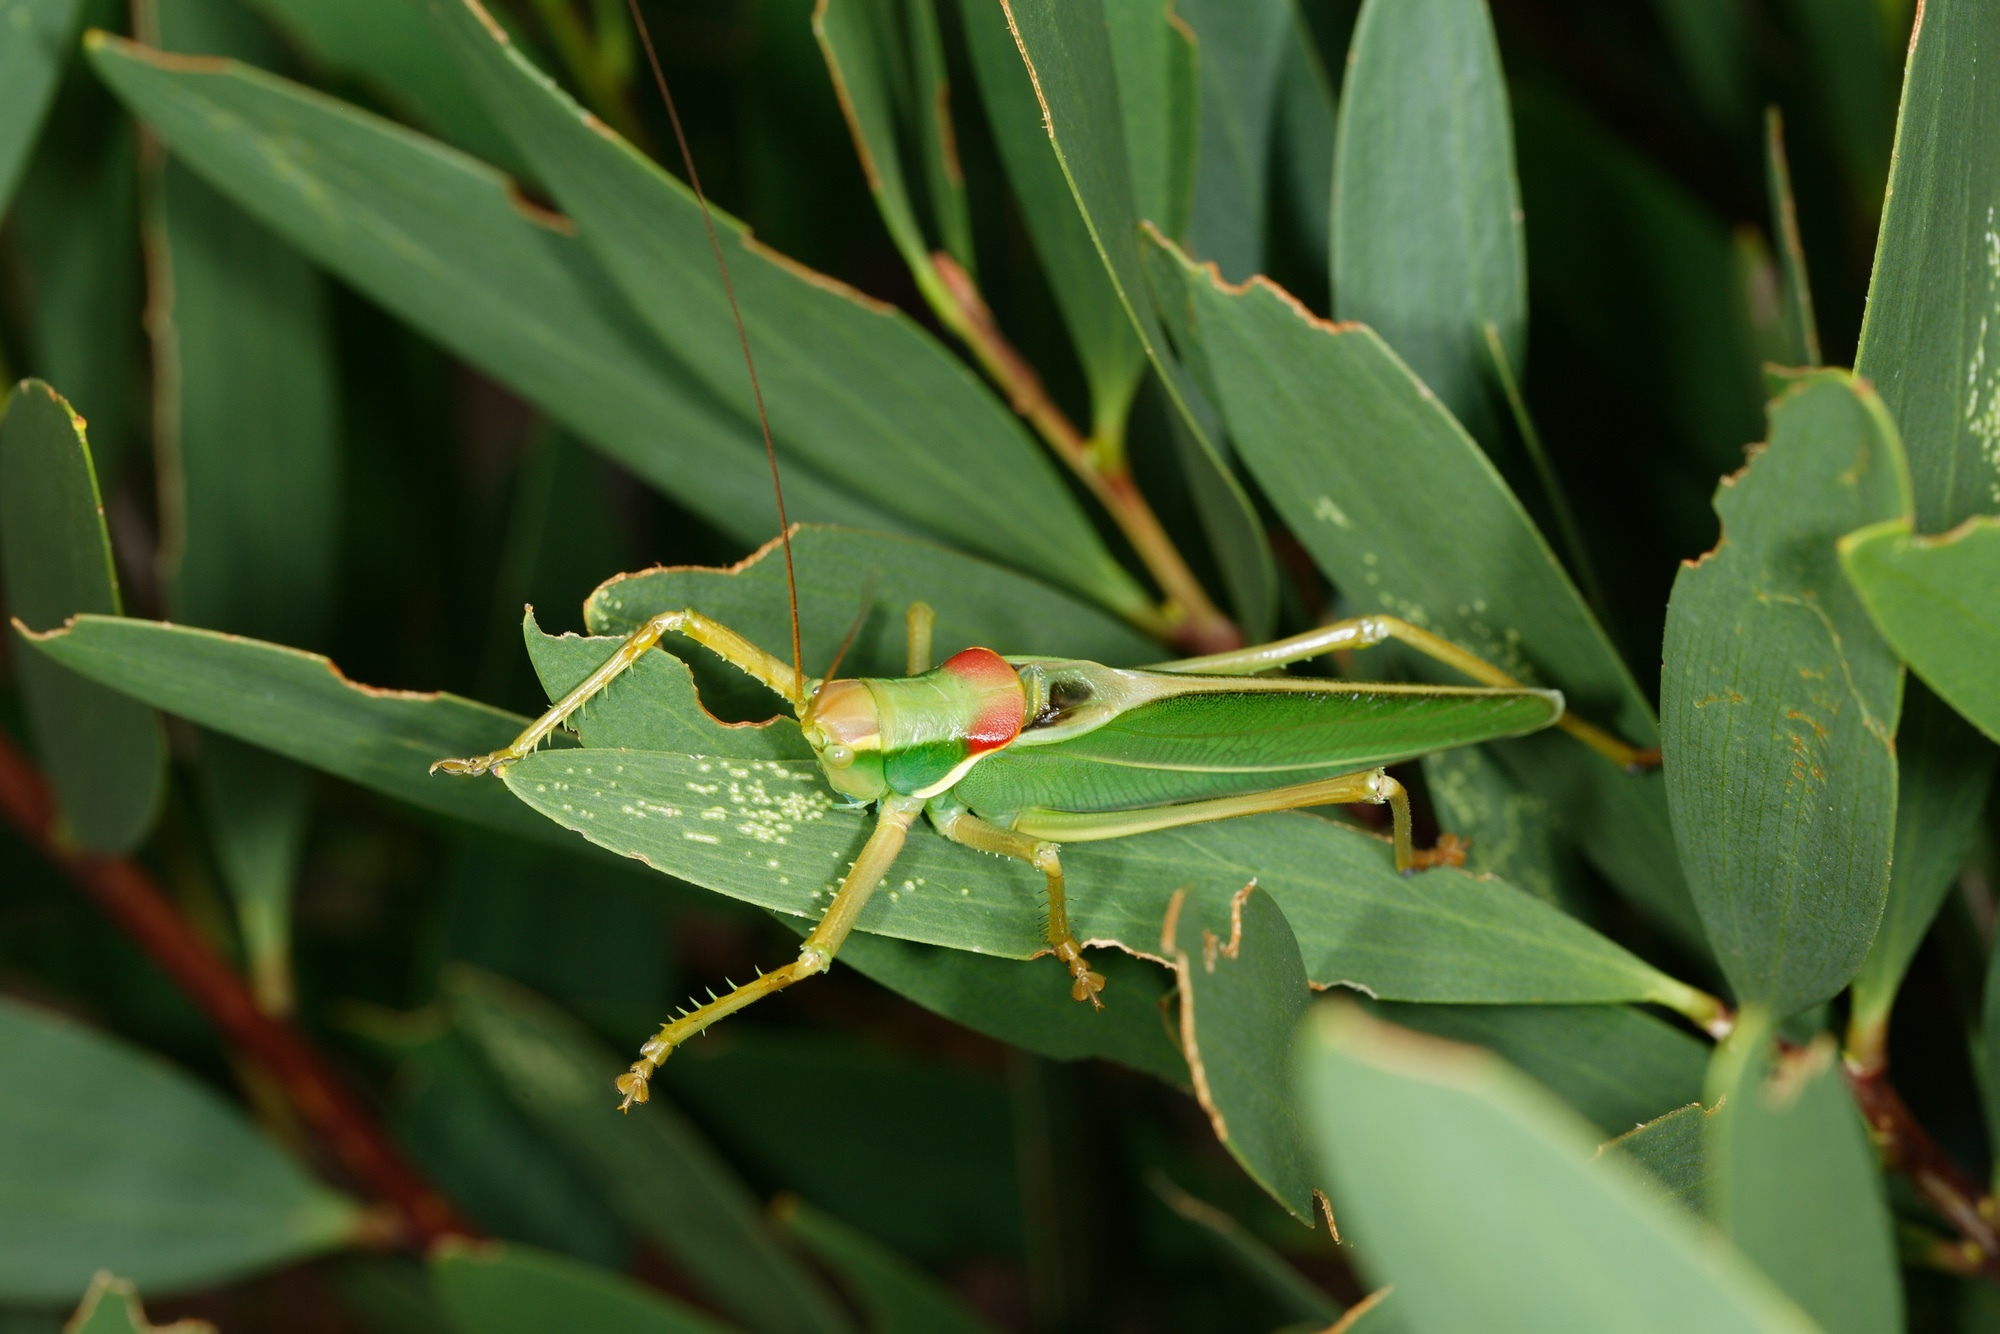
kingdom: Animalia
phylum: Arthropoda
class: Insecta
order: Orthoptera
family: Tettigoniidae
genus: Terpandrus
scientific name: Terpandrus endota
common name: Great green gumleaf katydid
